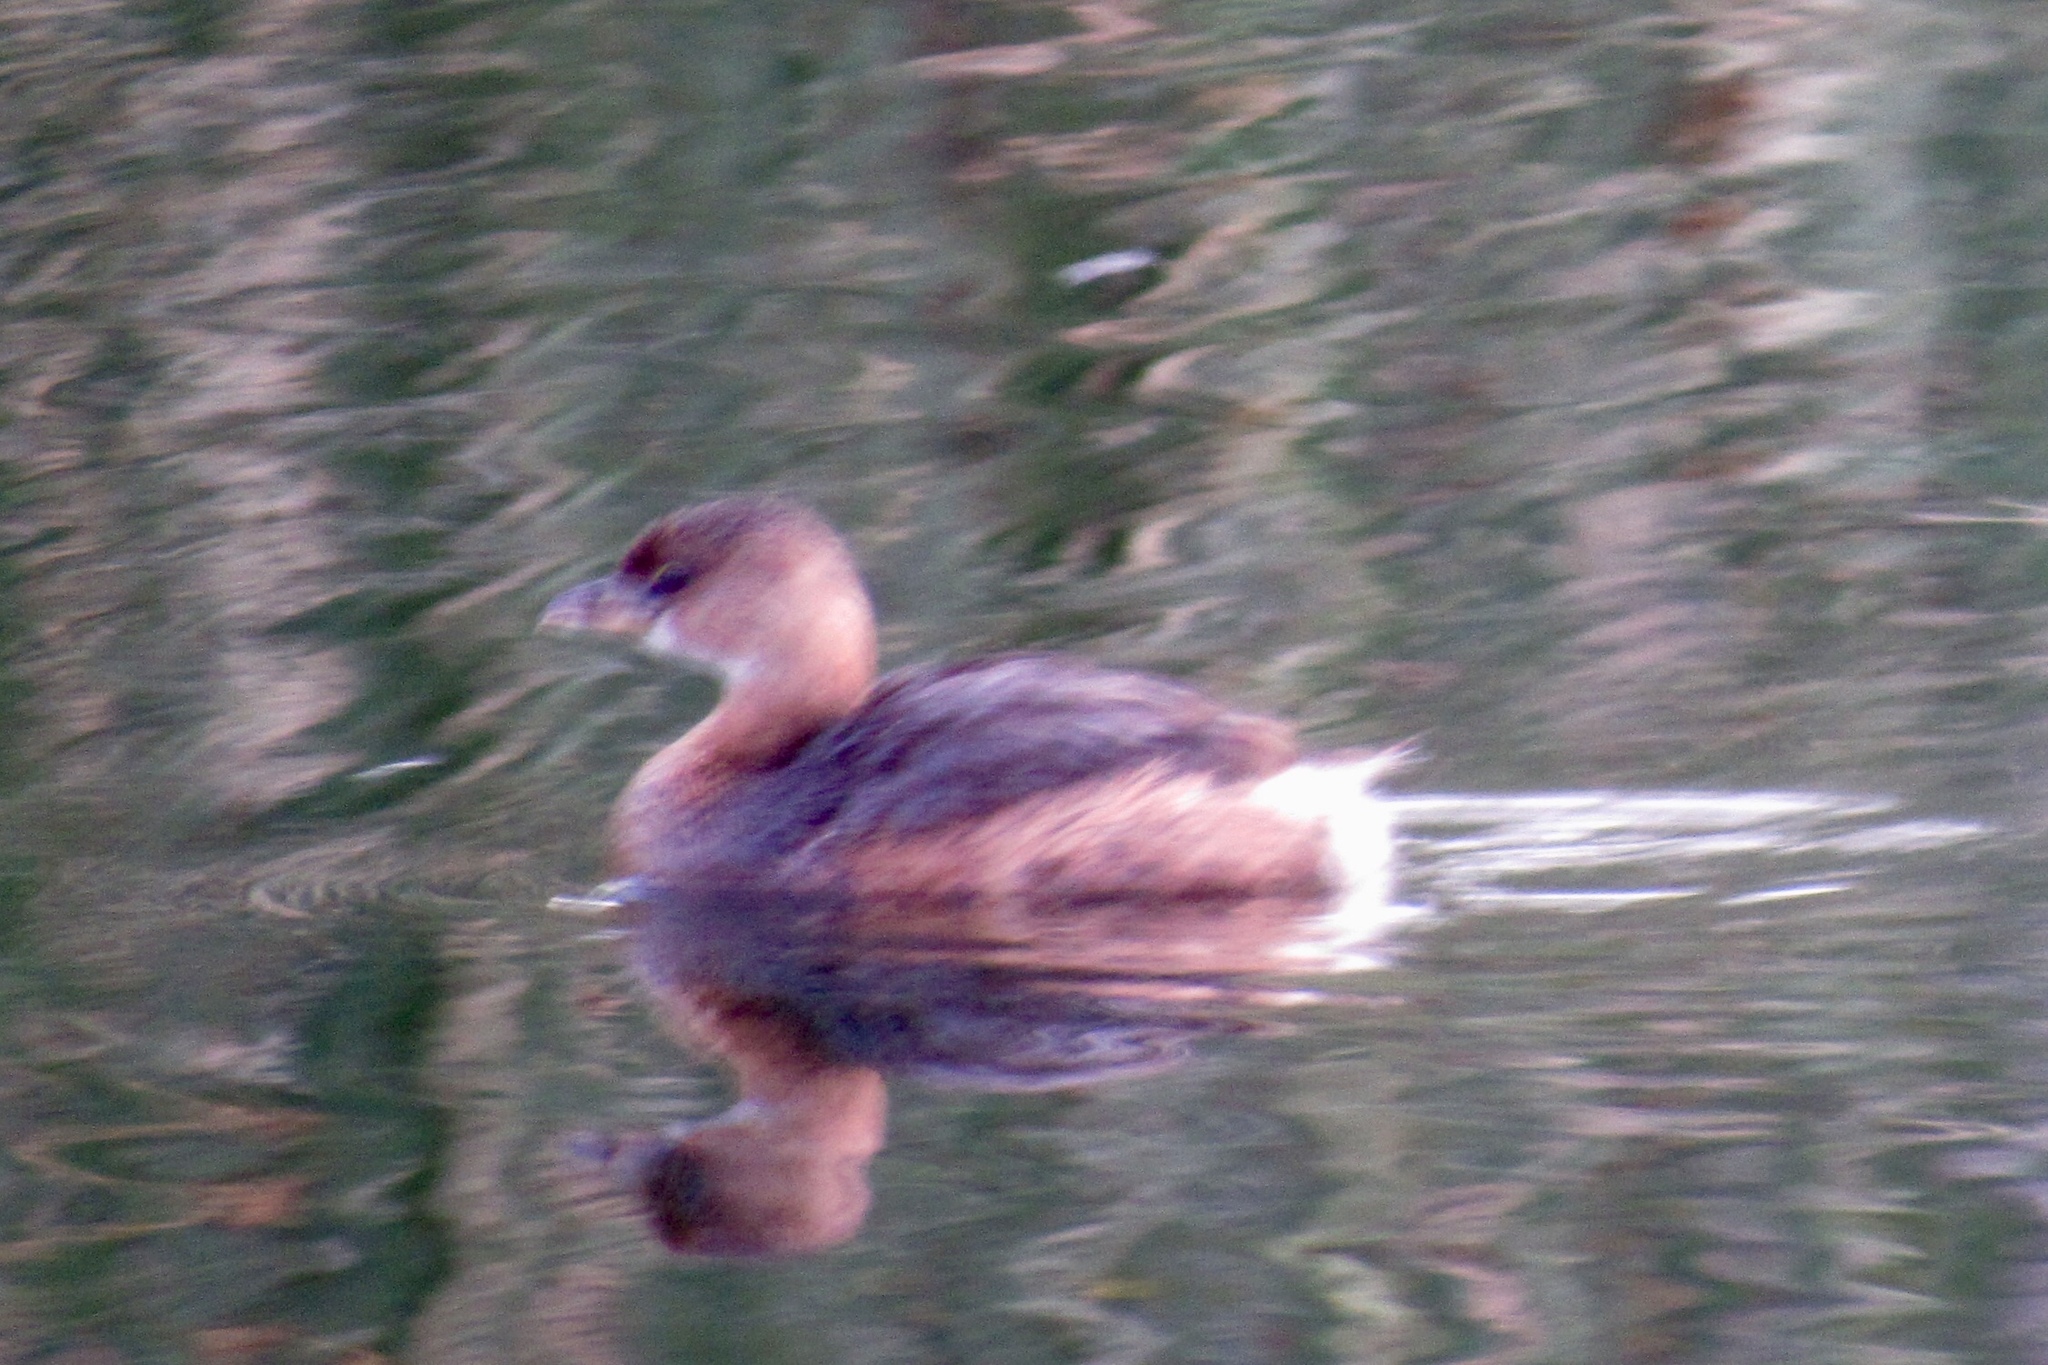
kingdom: Animalia
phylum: Chordata
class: Aves
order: Podicipediformes
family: Podicipedidae
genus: Podilymbus
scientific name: Podilymbus podiceps
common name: Pied-billed grebe
